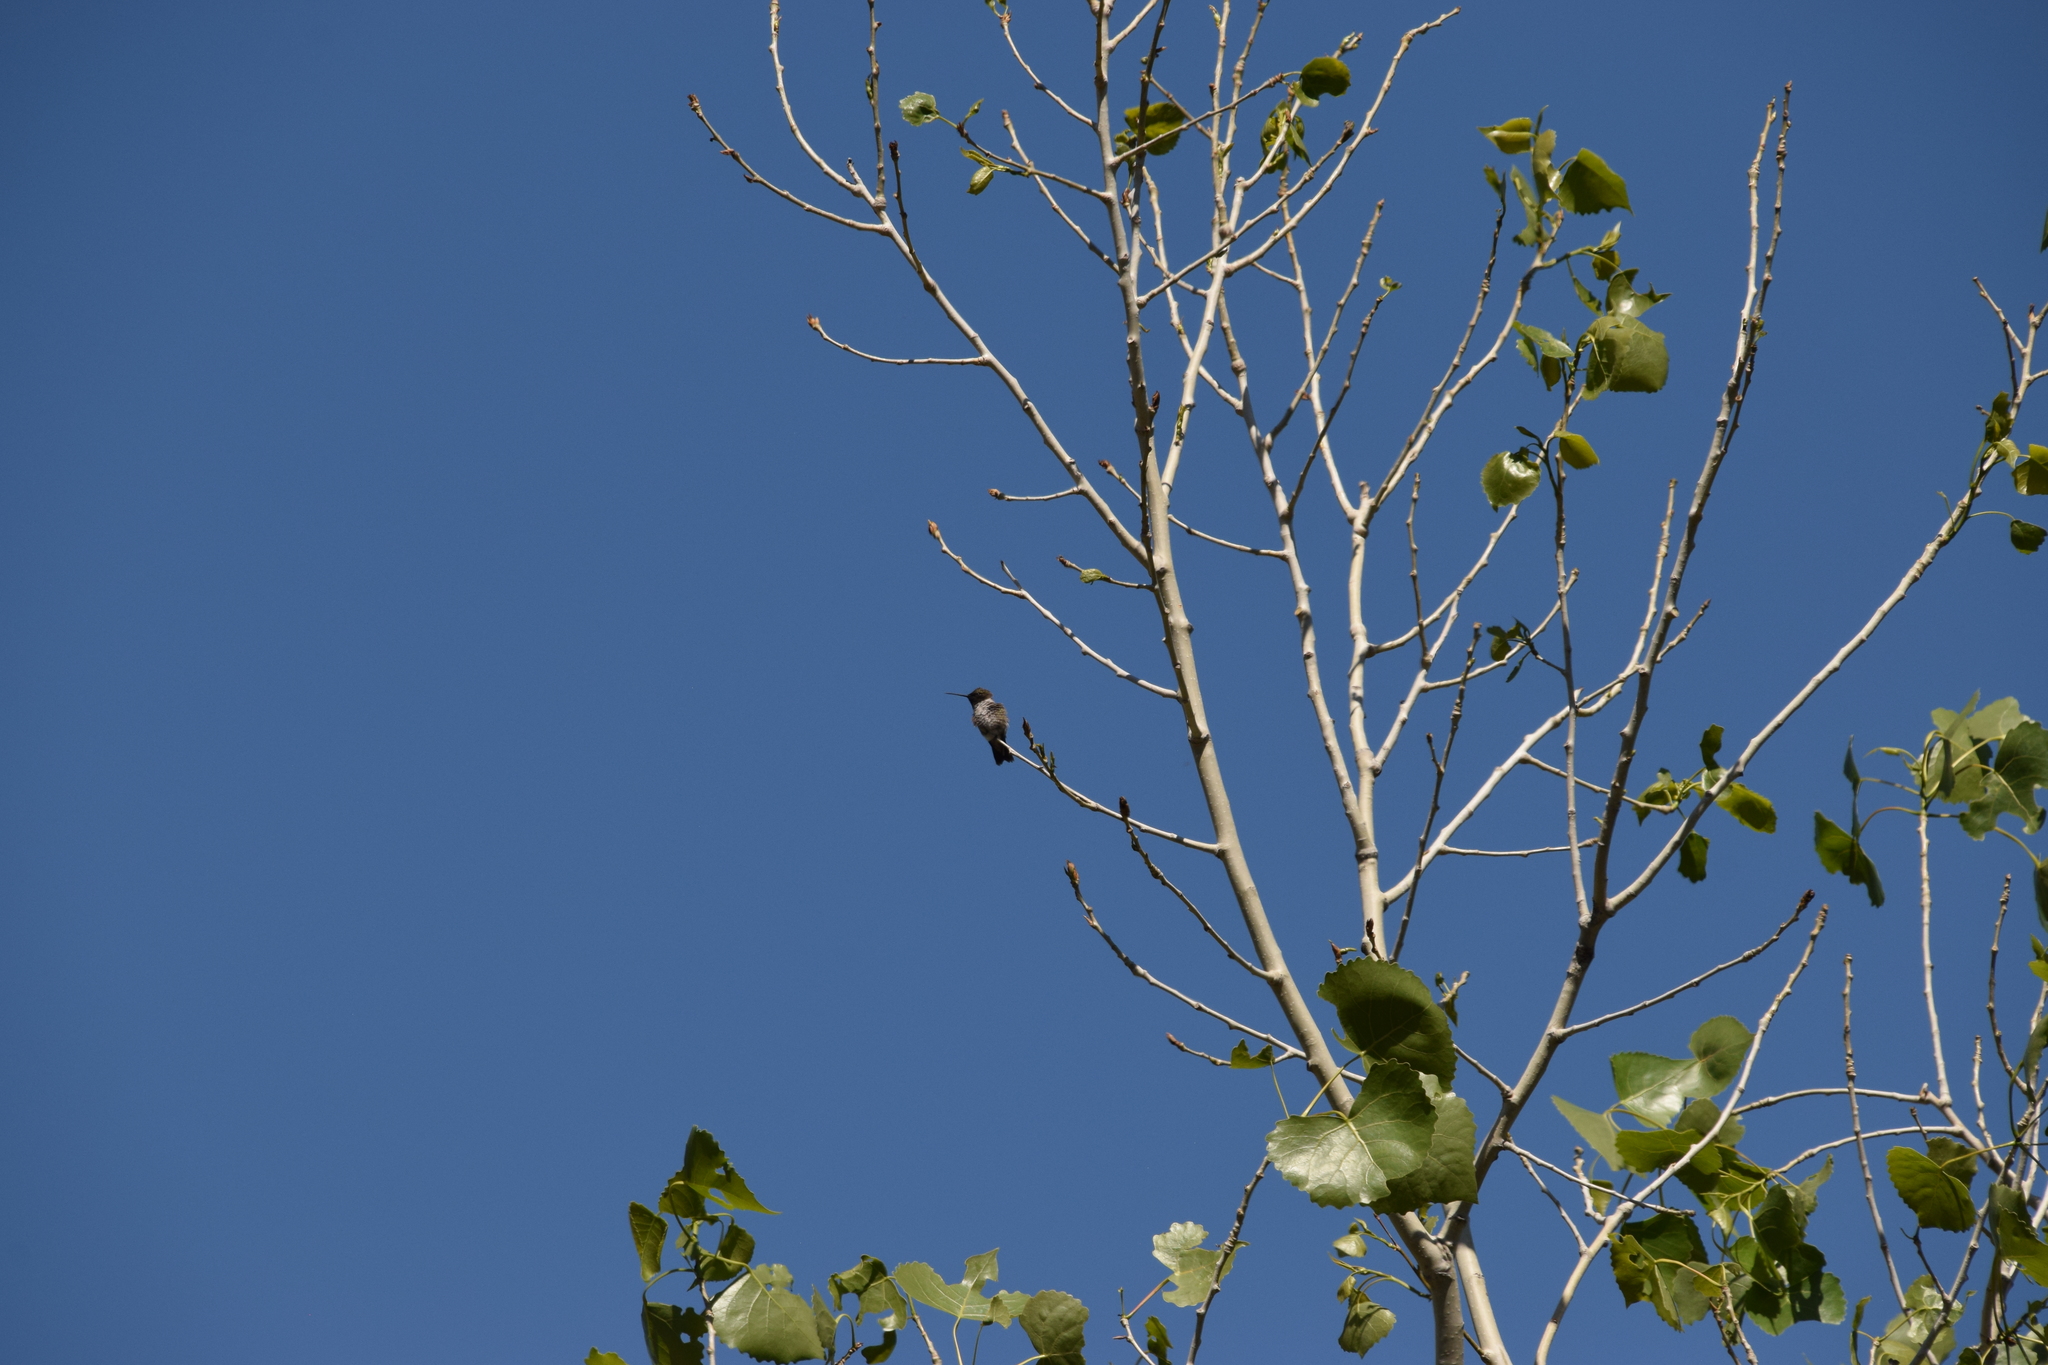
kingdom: Animalia
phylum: Chordata
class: Aves
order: Apodiformes
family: Trochilidae
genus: Archilochus
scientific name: Archilochus alexandri
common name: Black-chinned hummingbird
